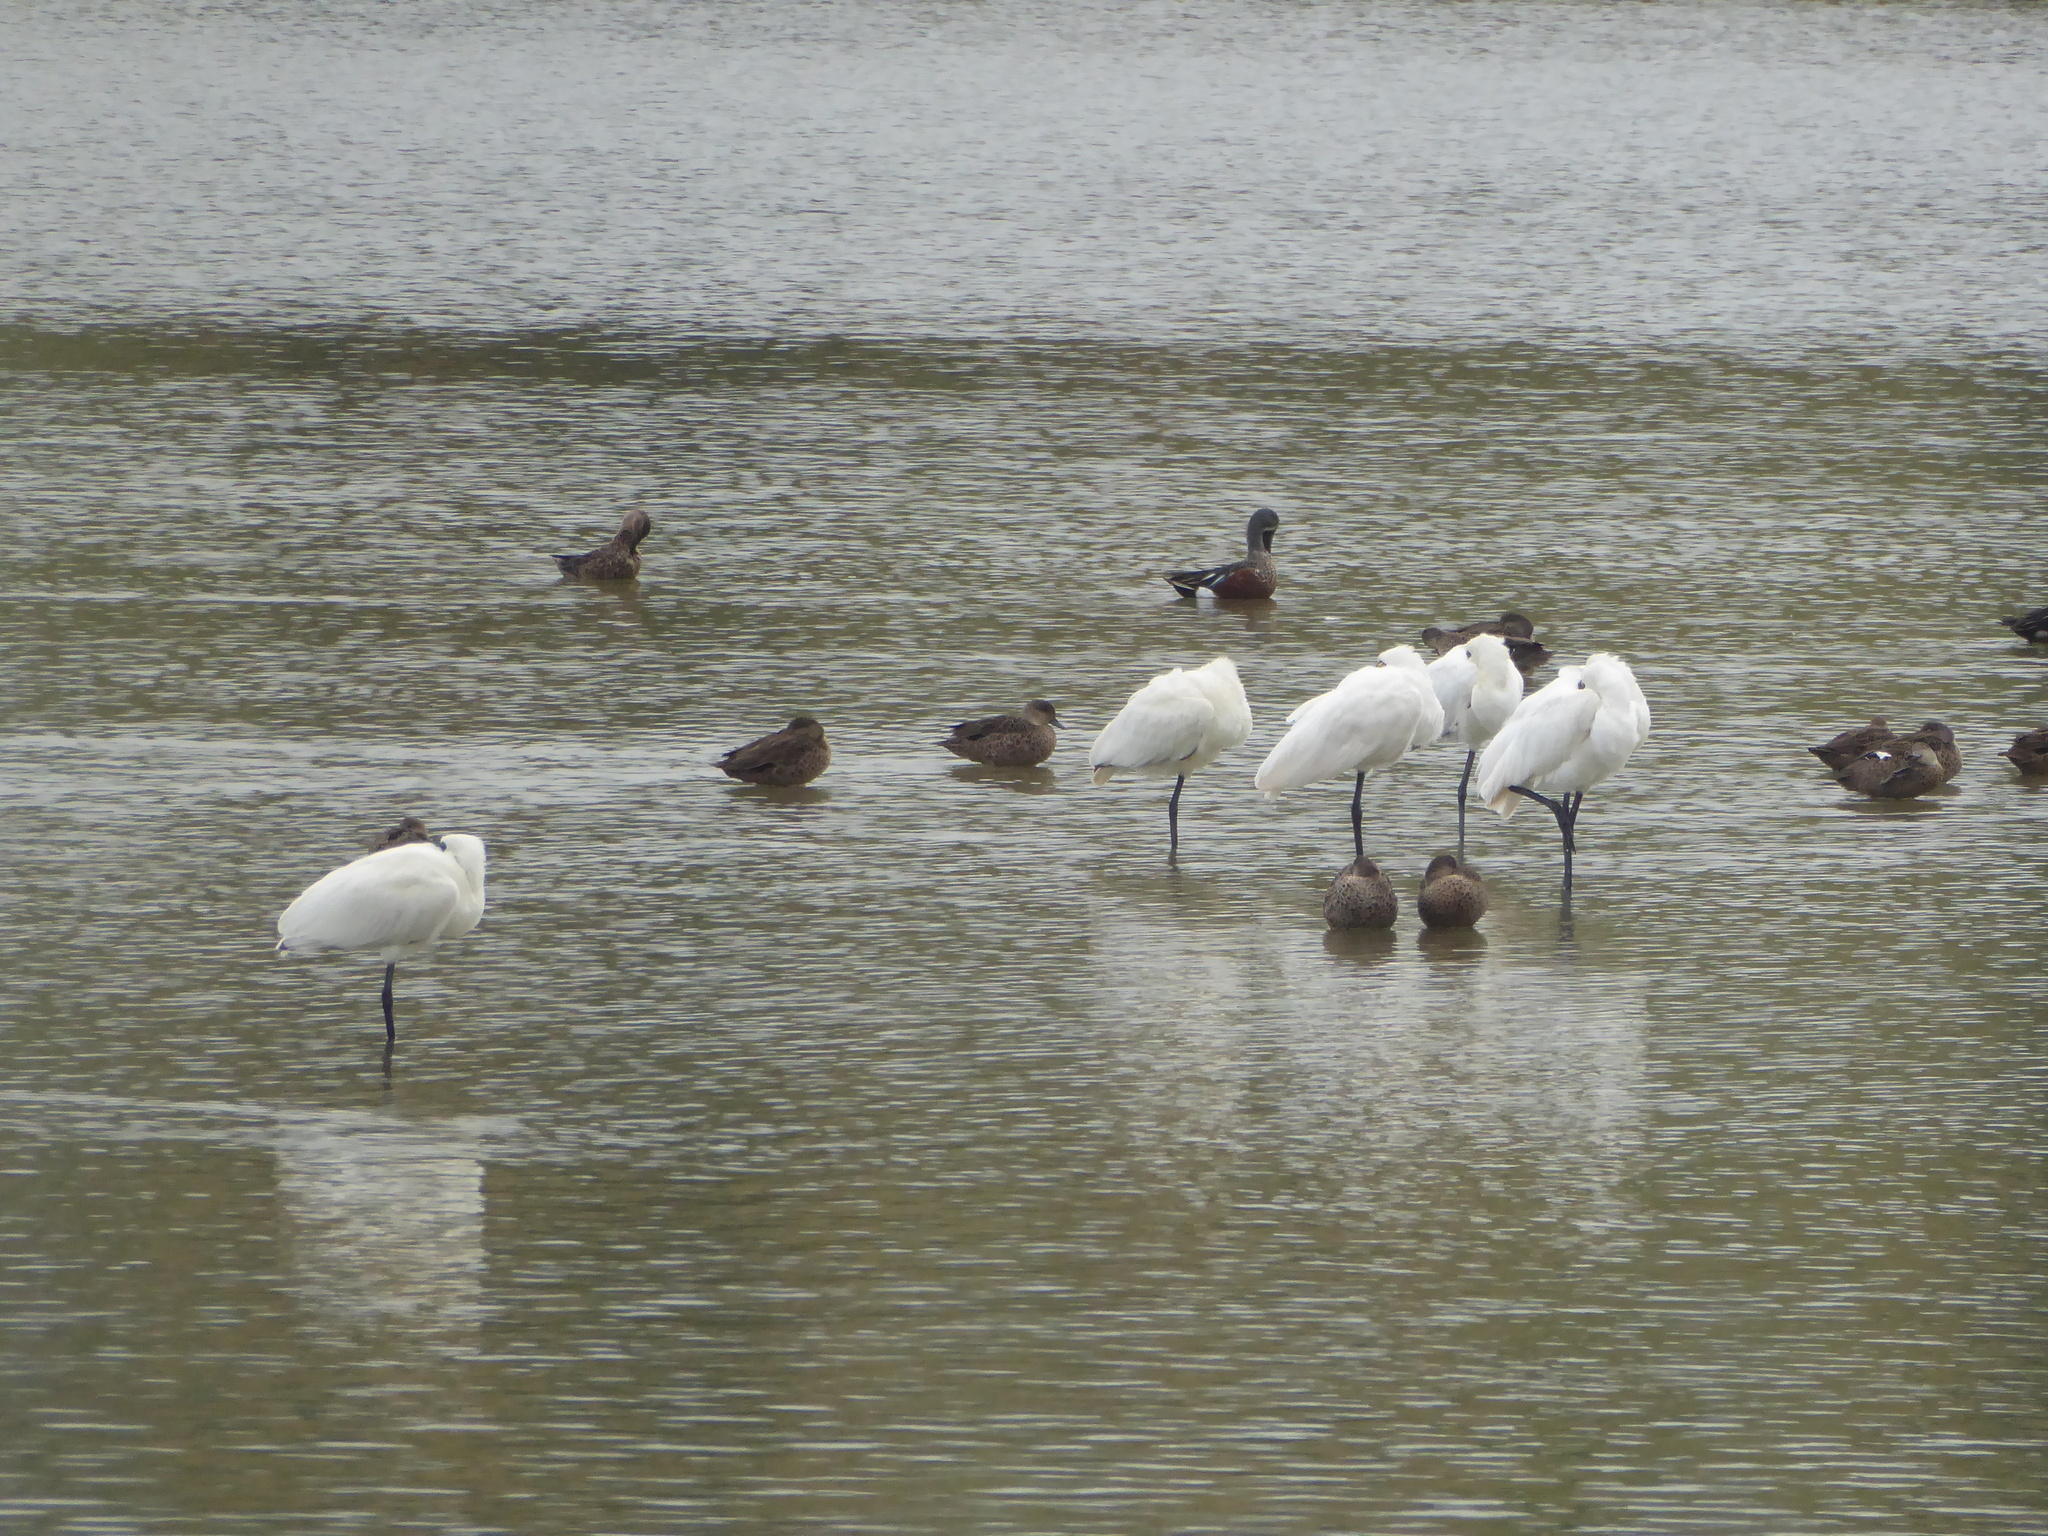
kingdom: Animalia
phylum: Chordata
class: Aves
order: Pelecaniformes
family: Threskiornithidae
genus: Platalea
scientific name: Platalea regia
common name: Royal spoonbill
